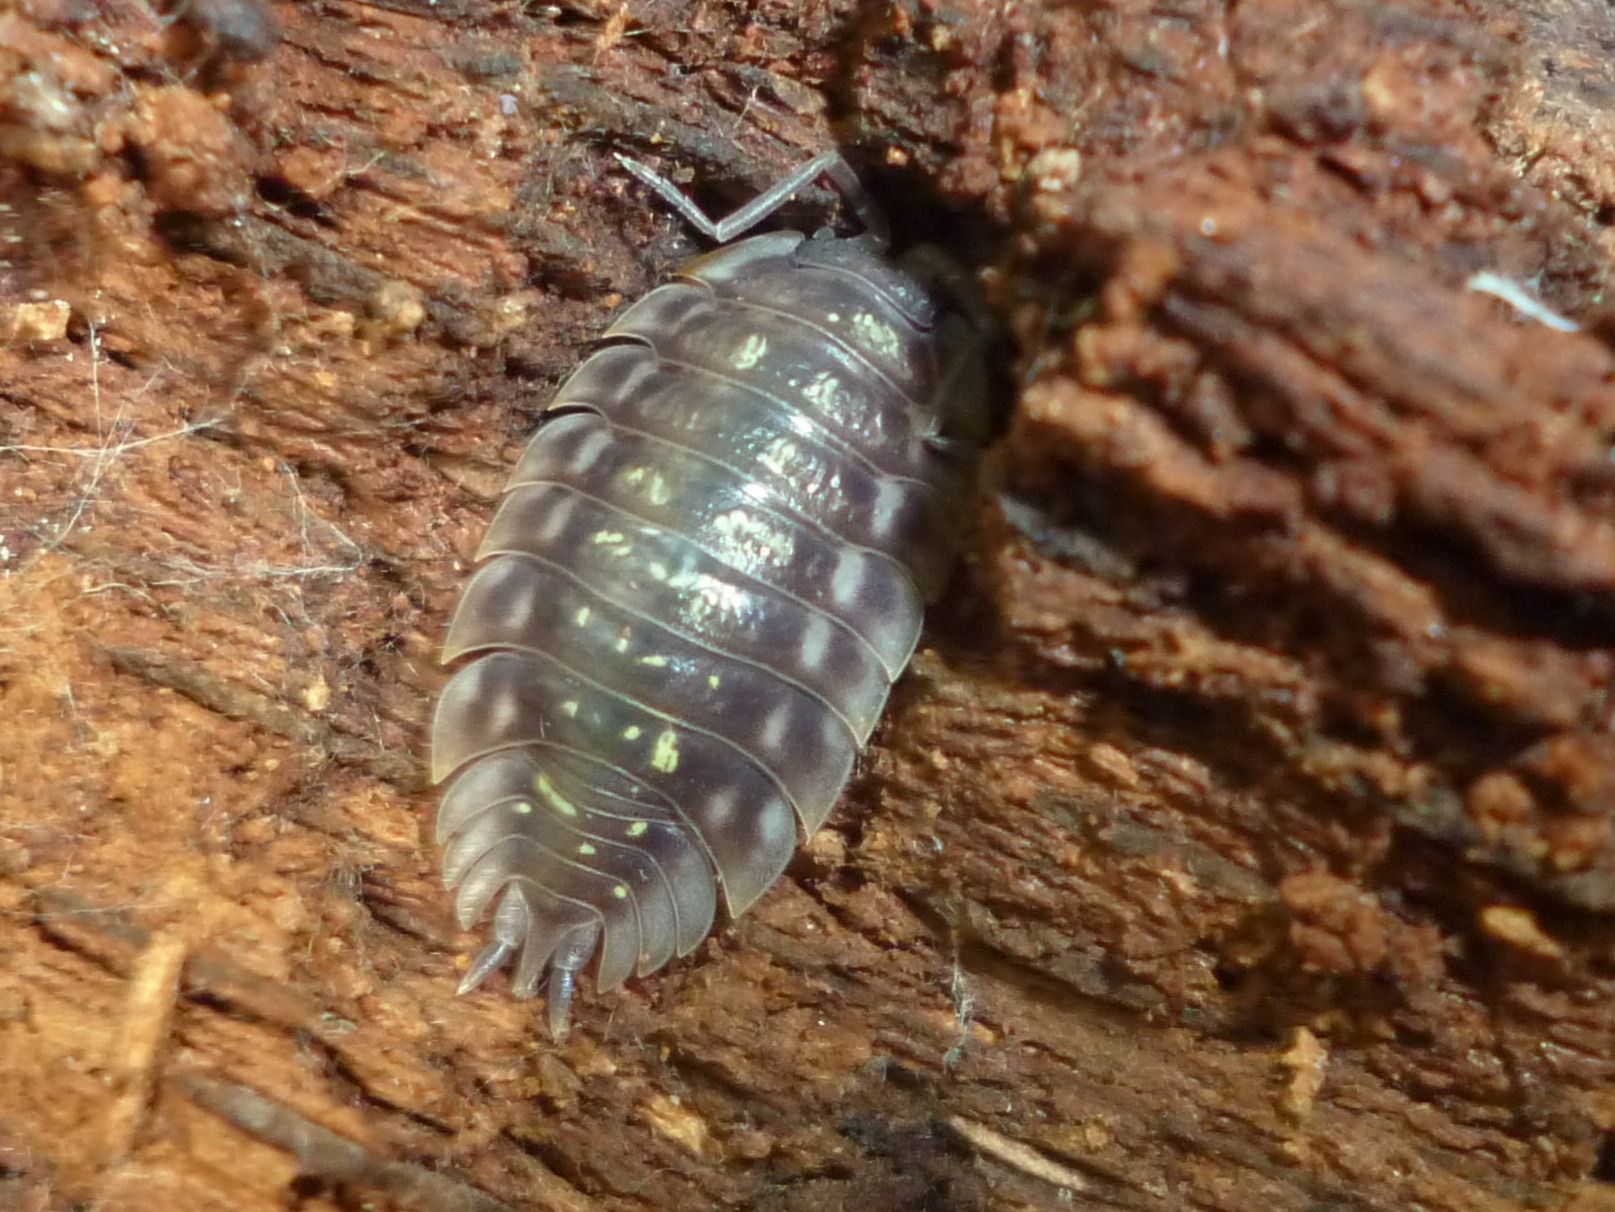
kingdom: Animalia
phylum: Arthropoda
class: Malacostraca
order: Isopoda
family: Oniscidae
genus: Oniscus
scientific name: Oniscus asellus
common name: Common shiny woodlouse
